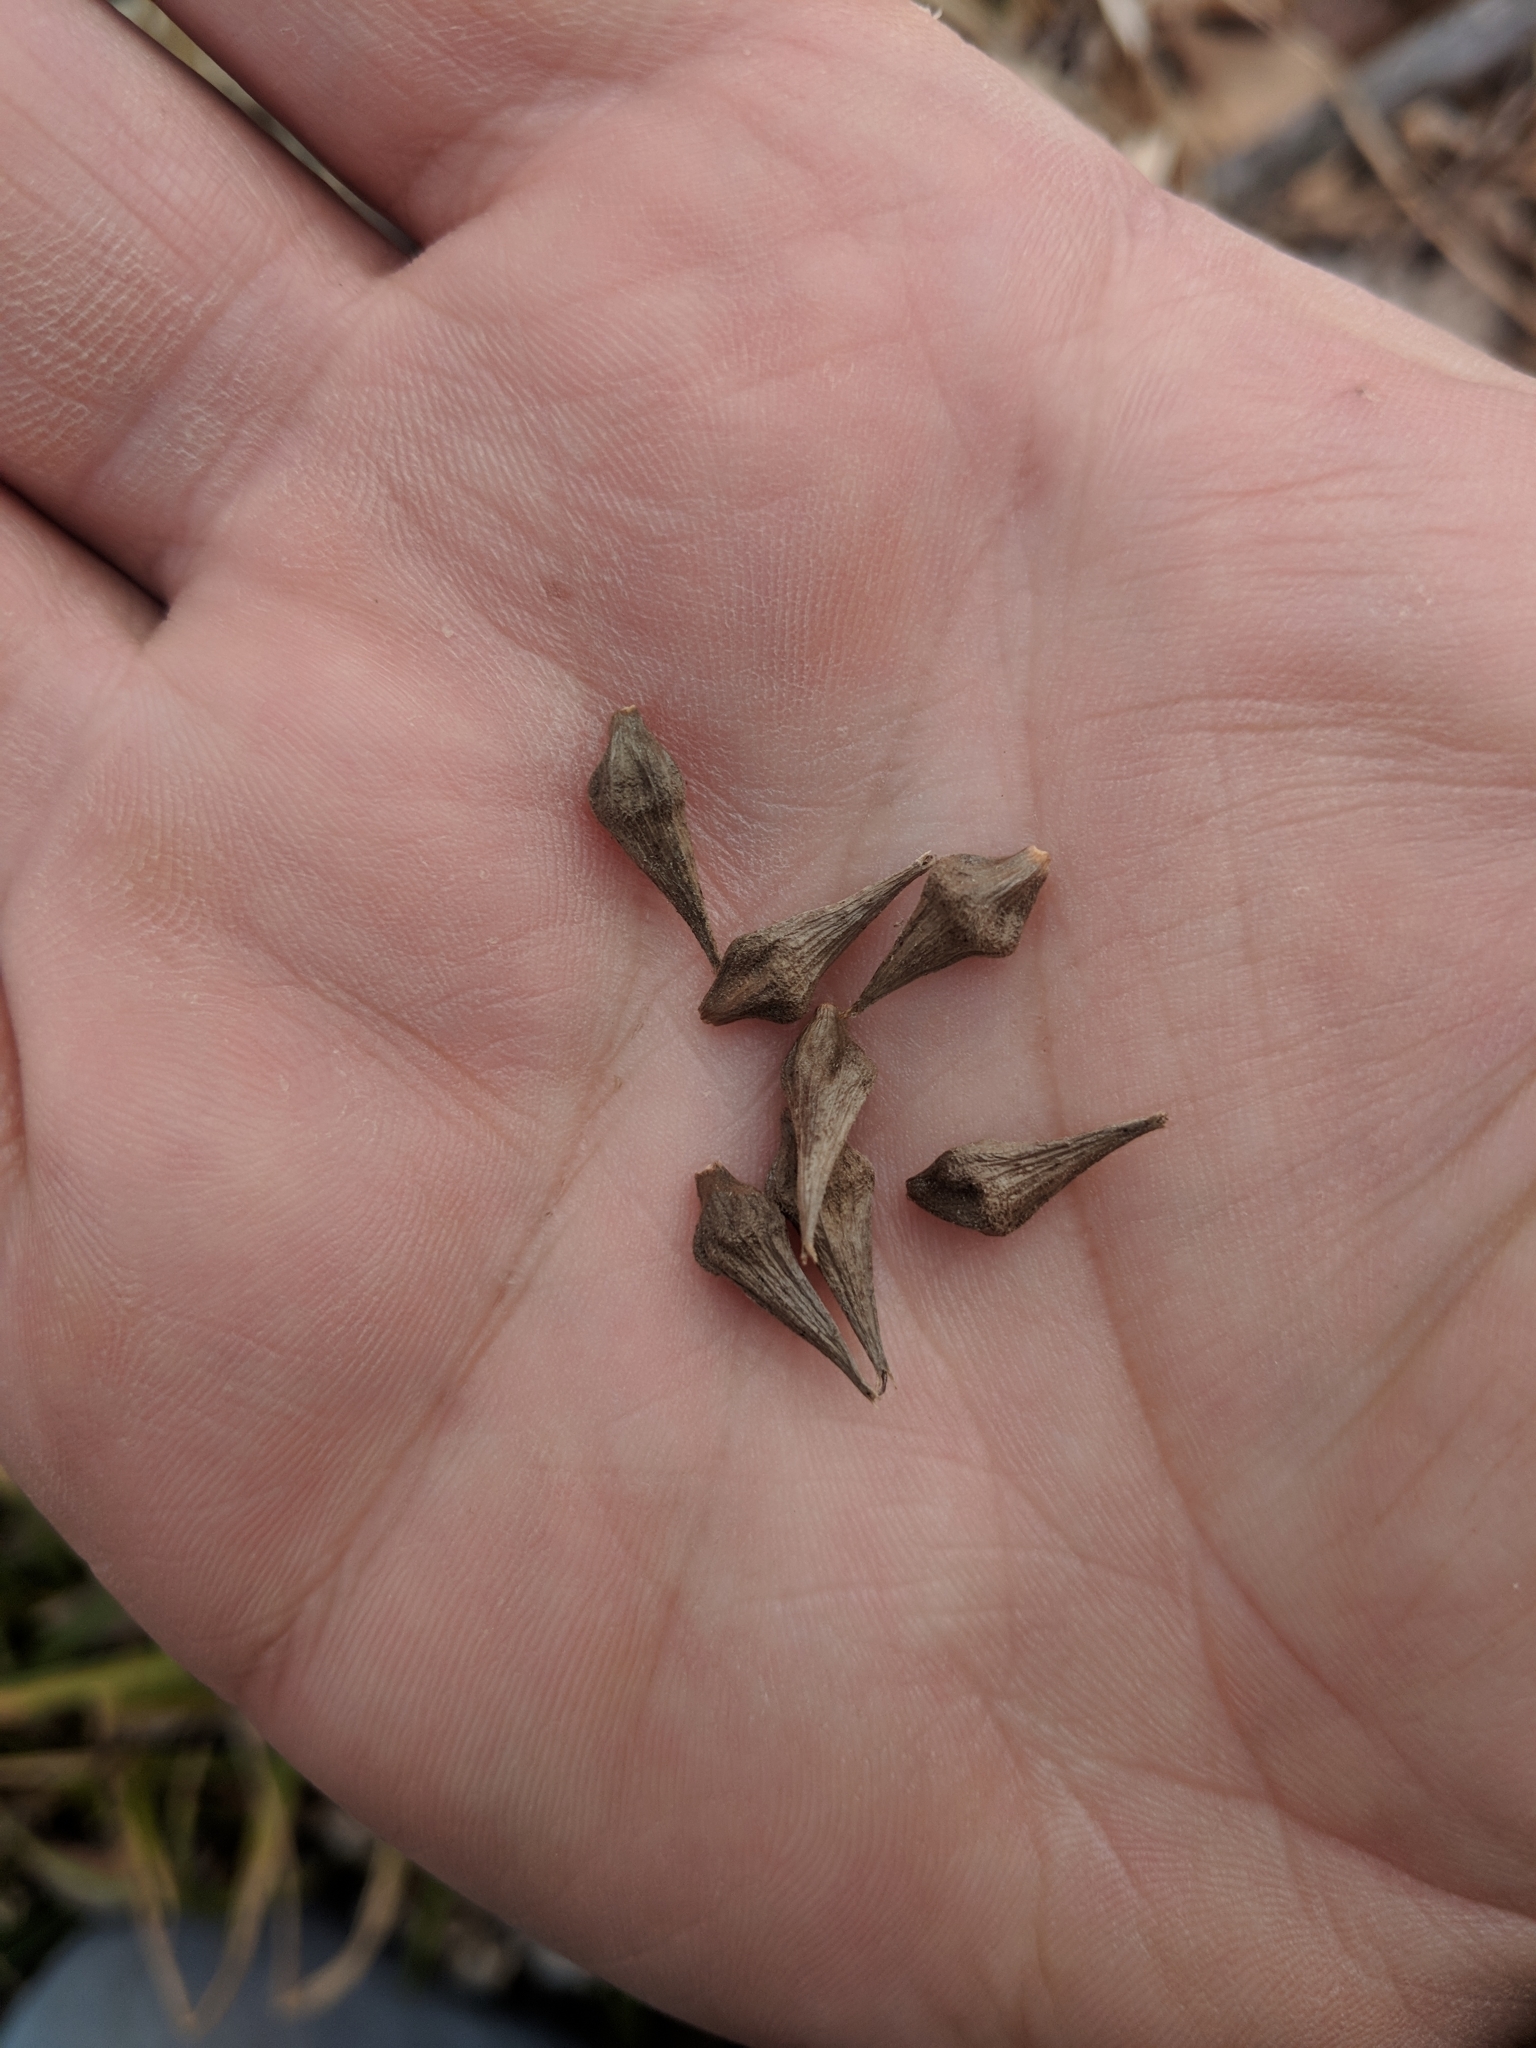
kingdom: Plantae
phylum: Tracheophyta
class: Liliopsida
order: Poales
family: Cyperaceae
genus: Carex
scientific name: Carex grayi
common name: Asa gray's sedge
